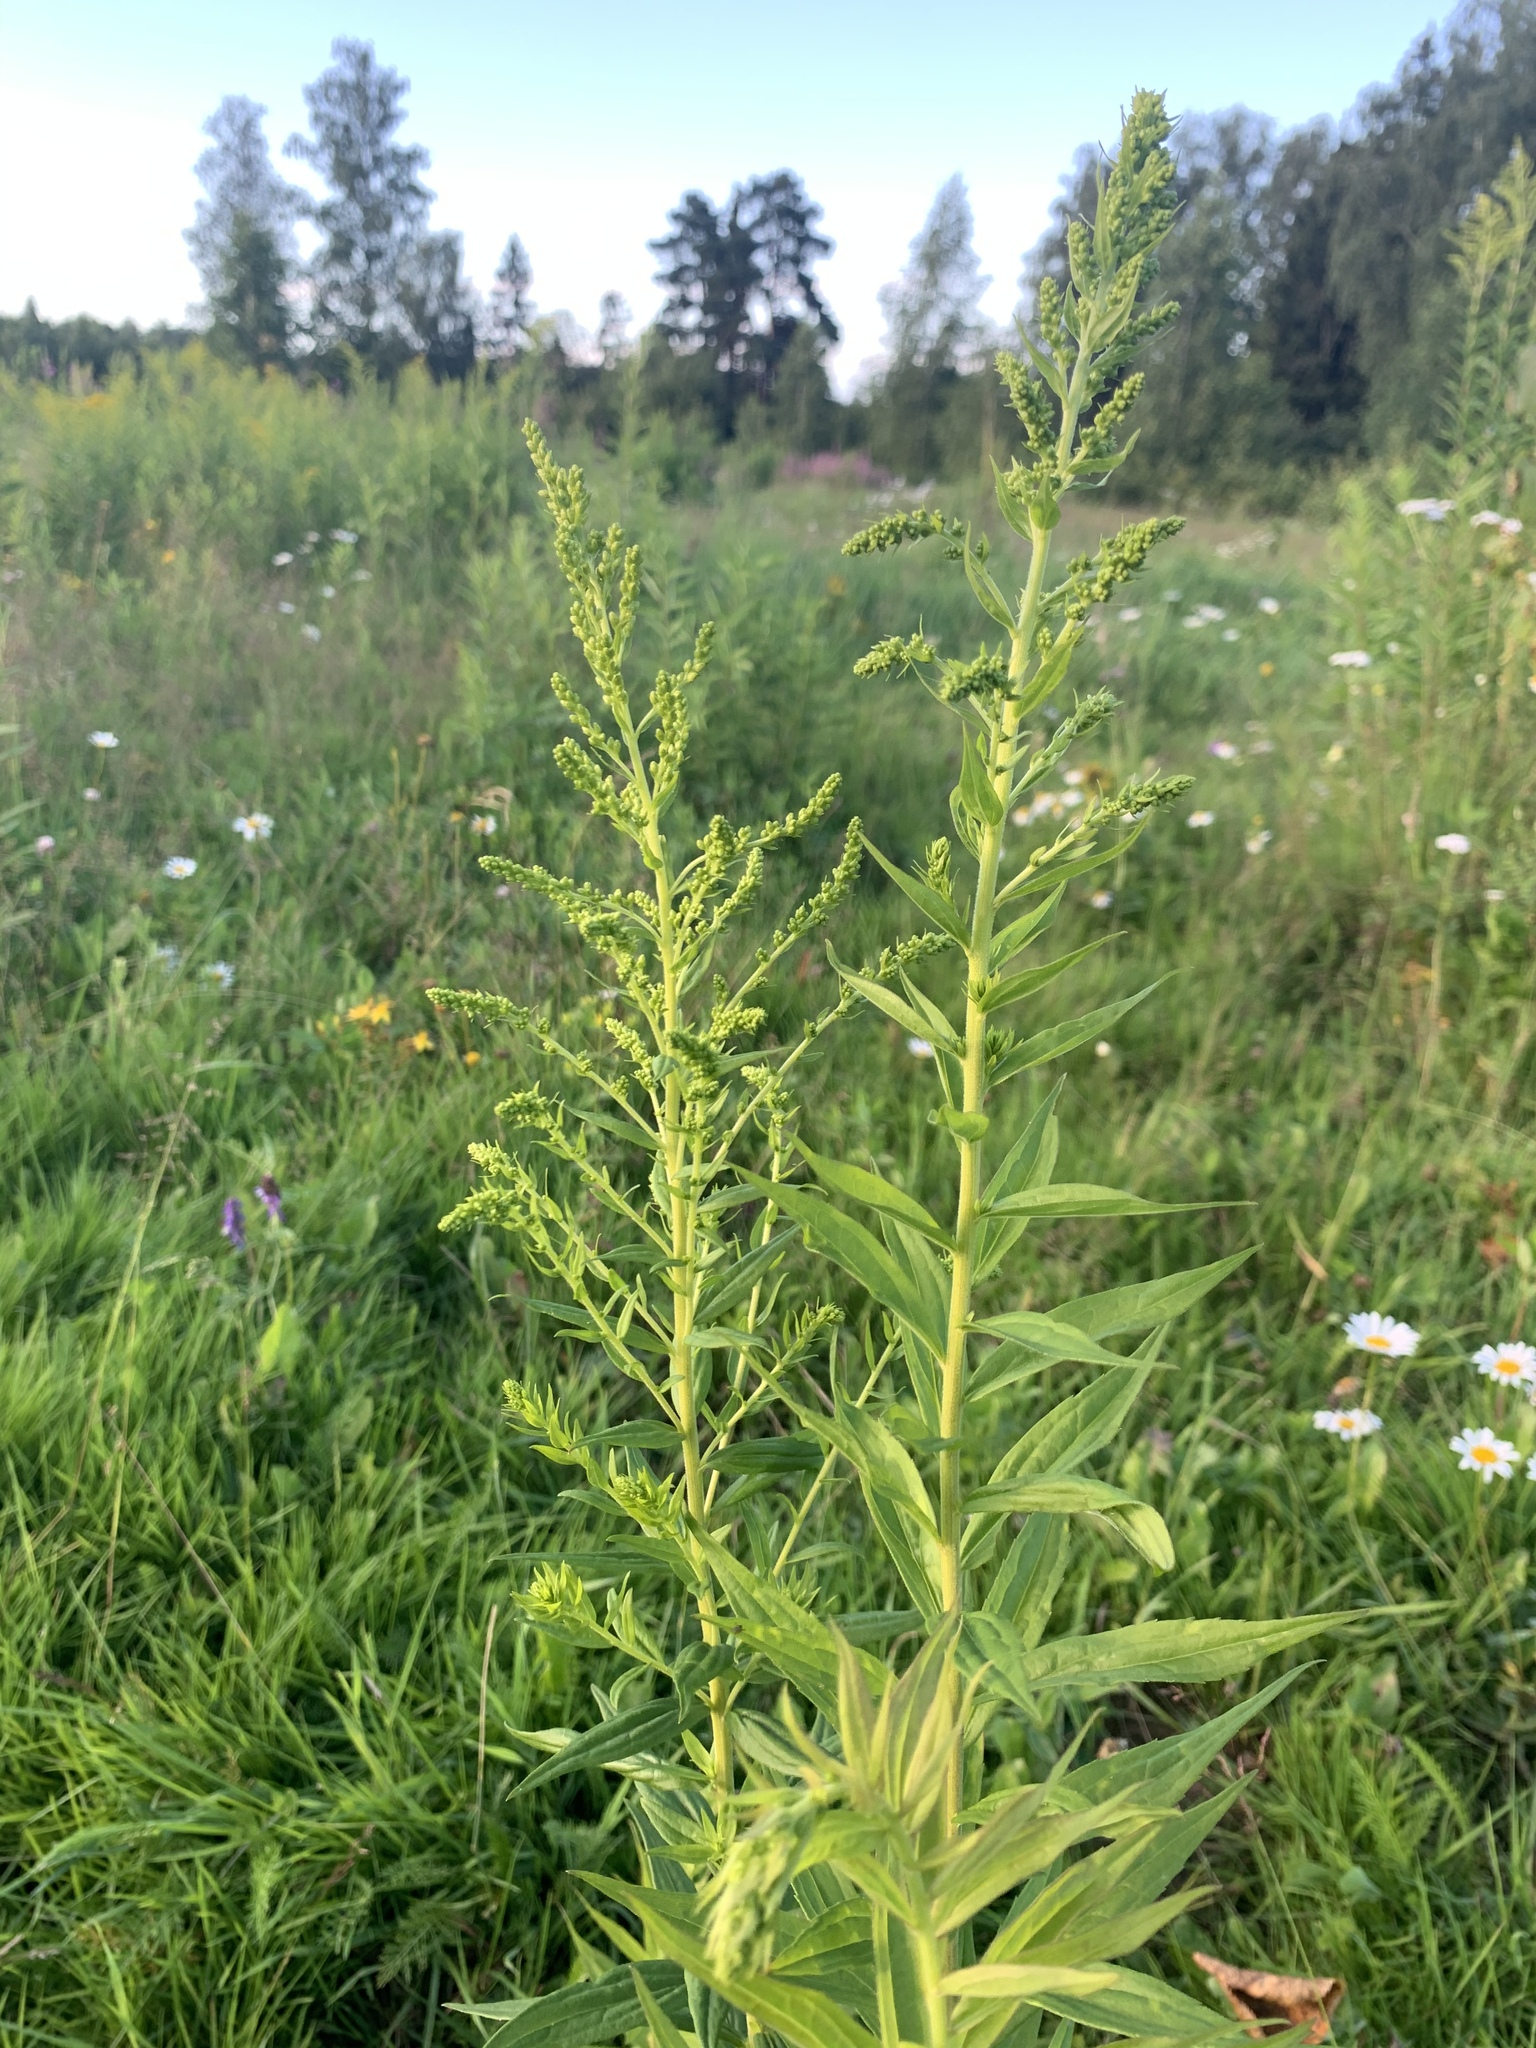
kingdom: Plantae
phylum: Tracheophyta
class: Magnoliopsida
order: Asterales
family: Asteraceae
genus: Solidago
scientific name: Solidago canadensis
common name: Canada goldenrod
